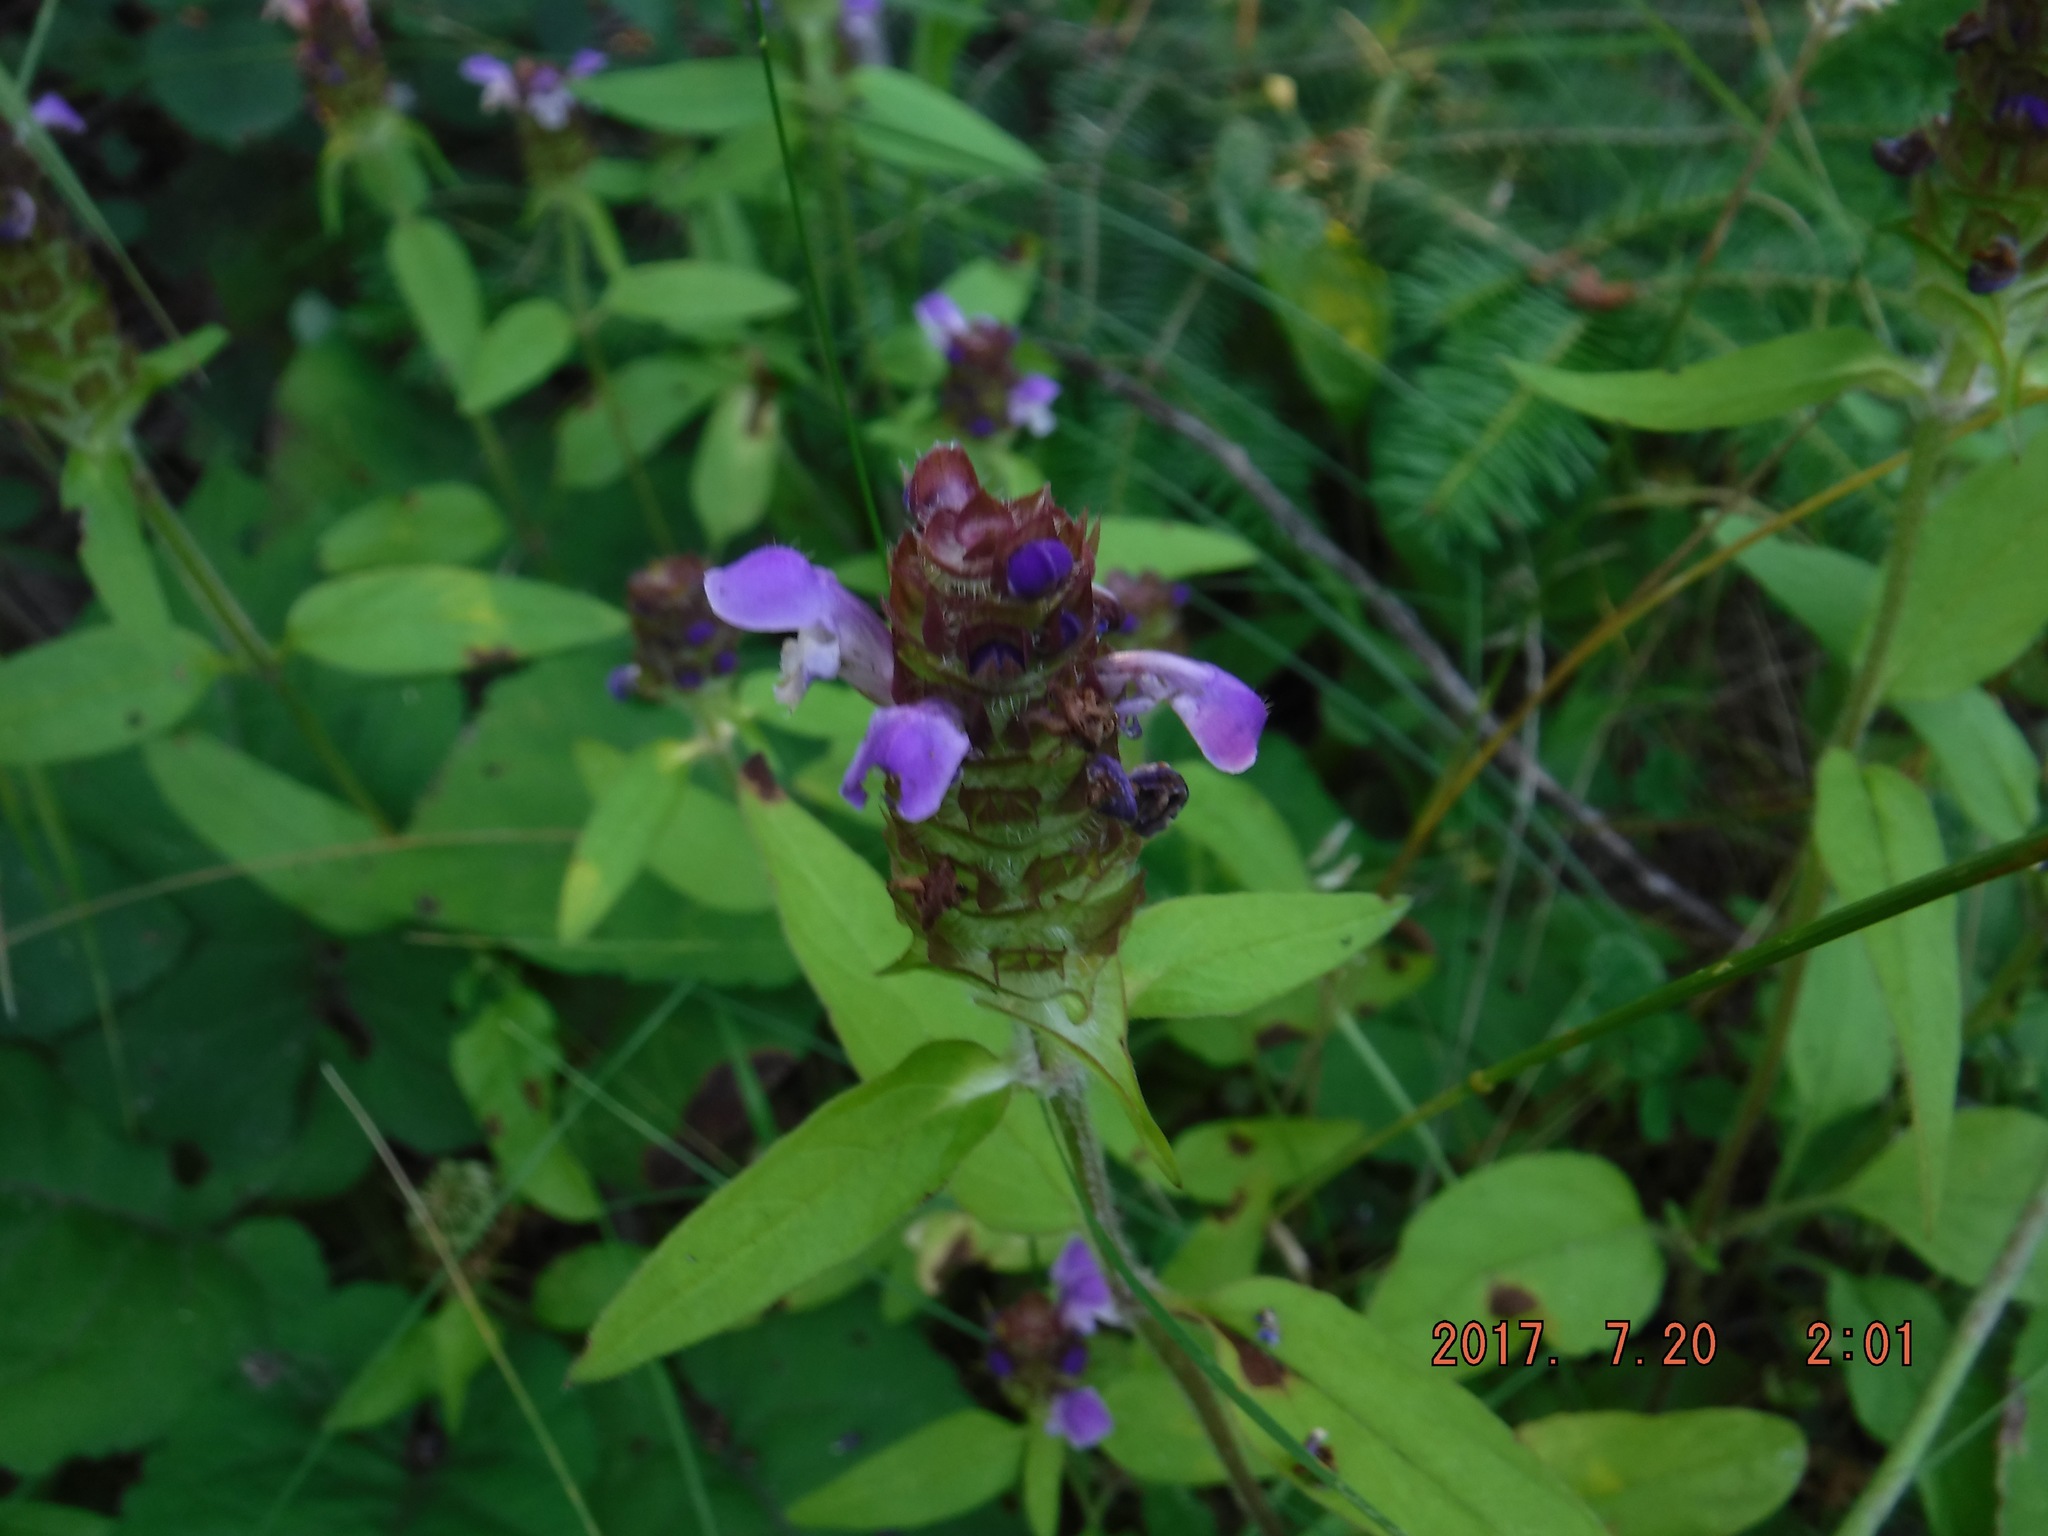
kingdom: Plantae
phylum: Tracheophyta
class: Magnoliopsida
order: Lamiales
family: Lamiaceae
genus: Prunella
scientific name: Prunella vulgaris
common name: Heal-all
